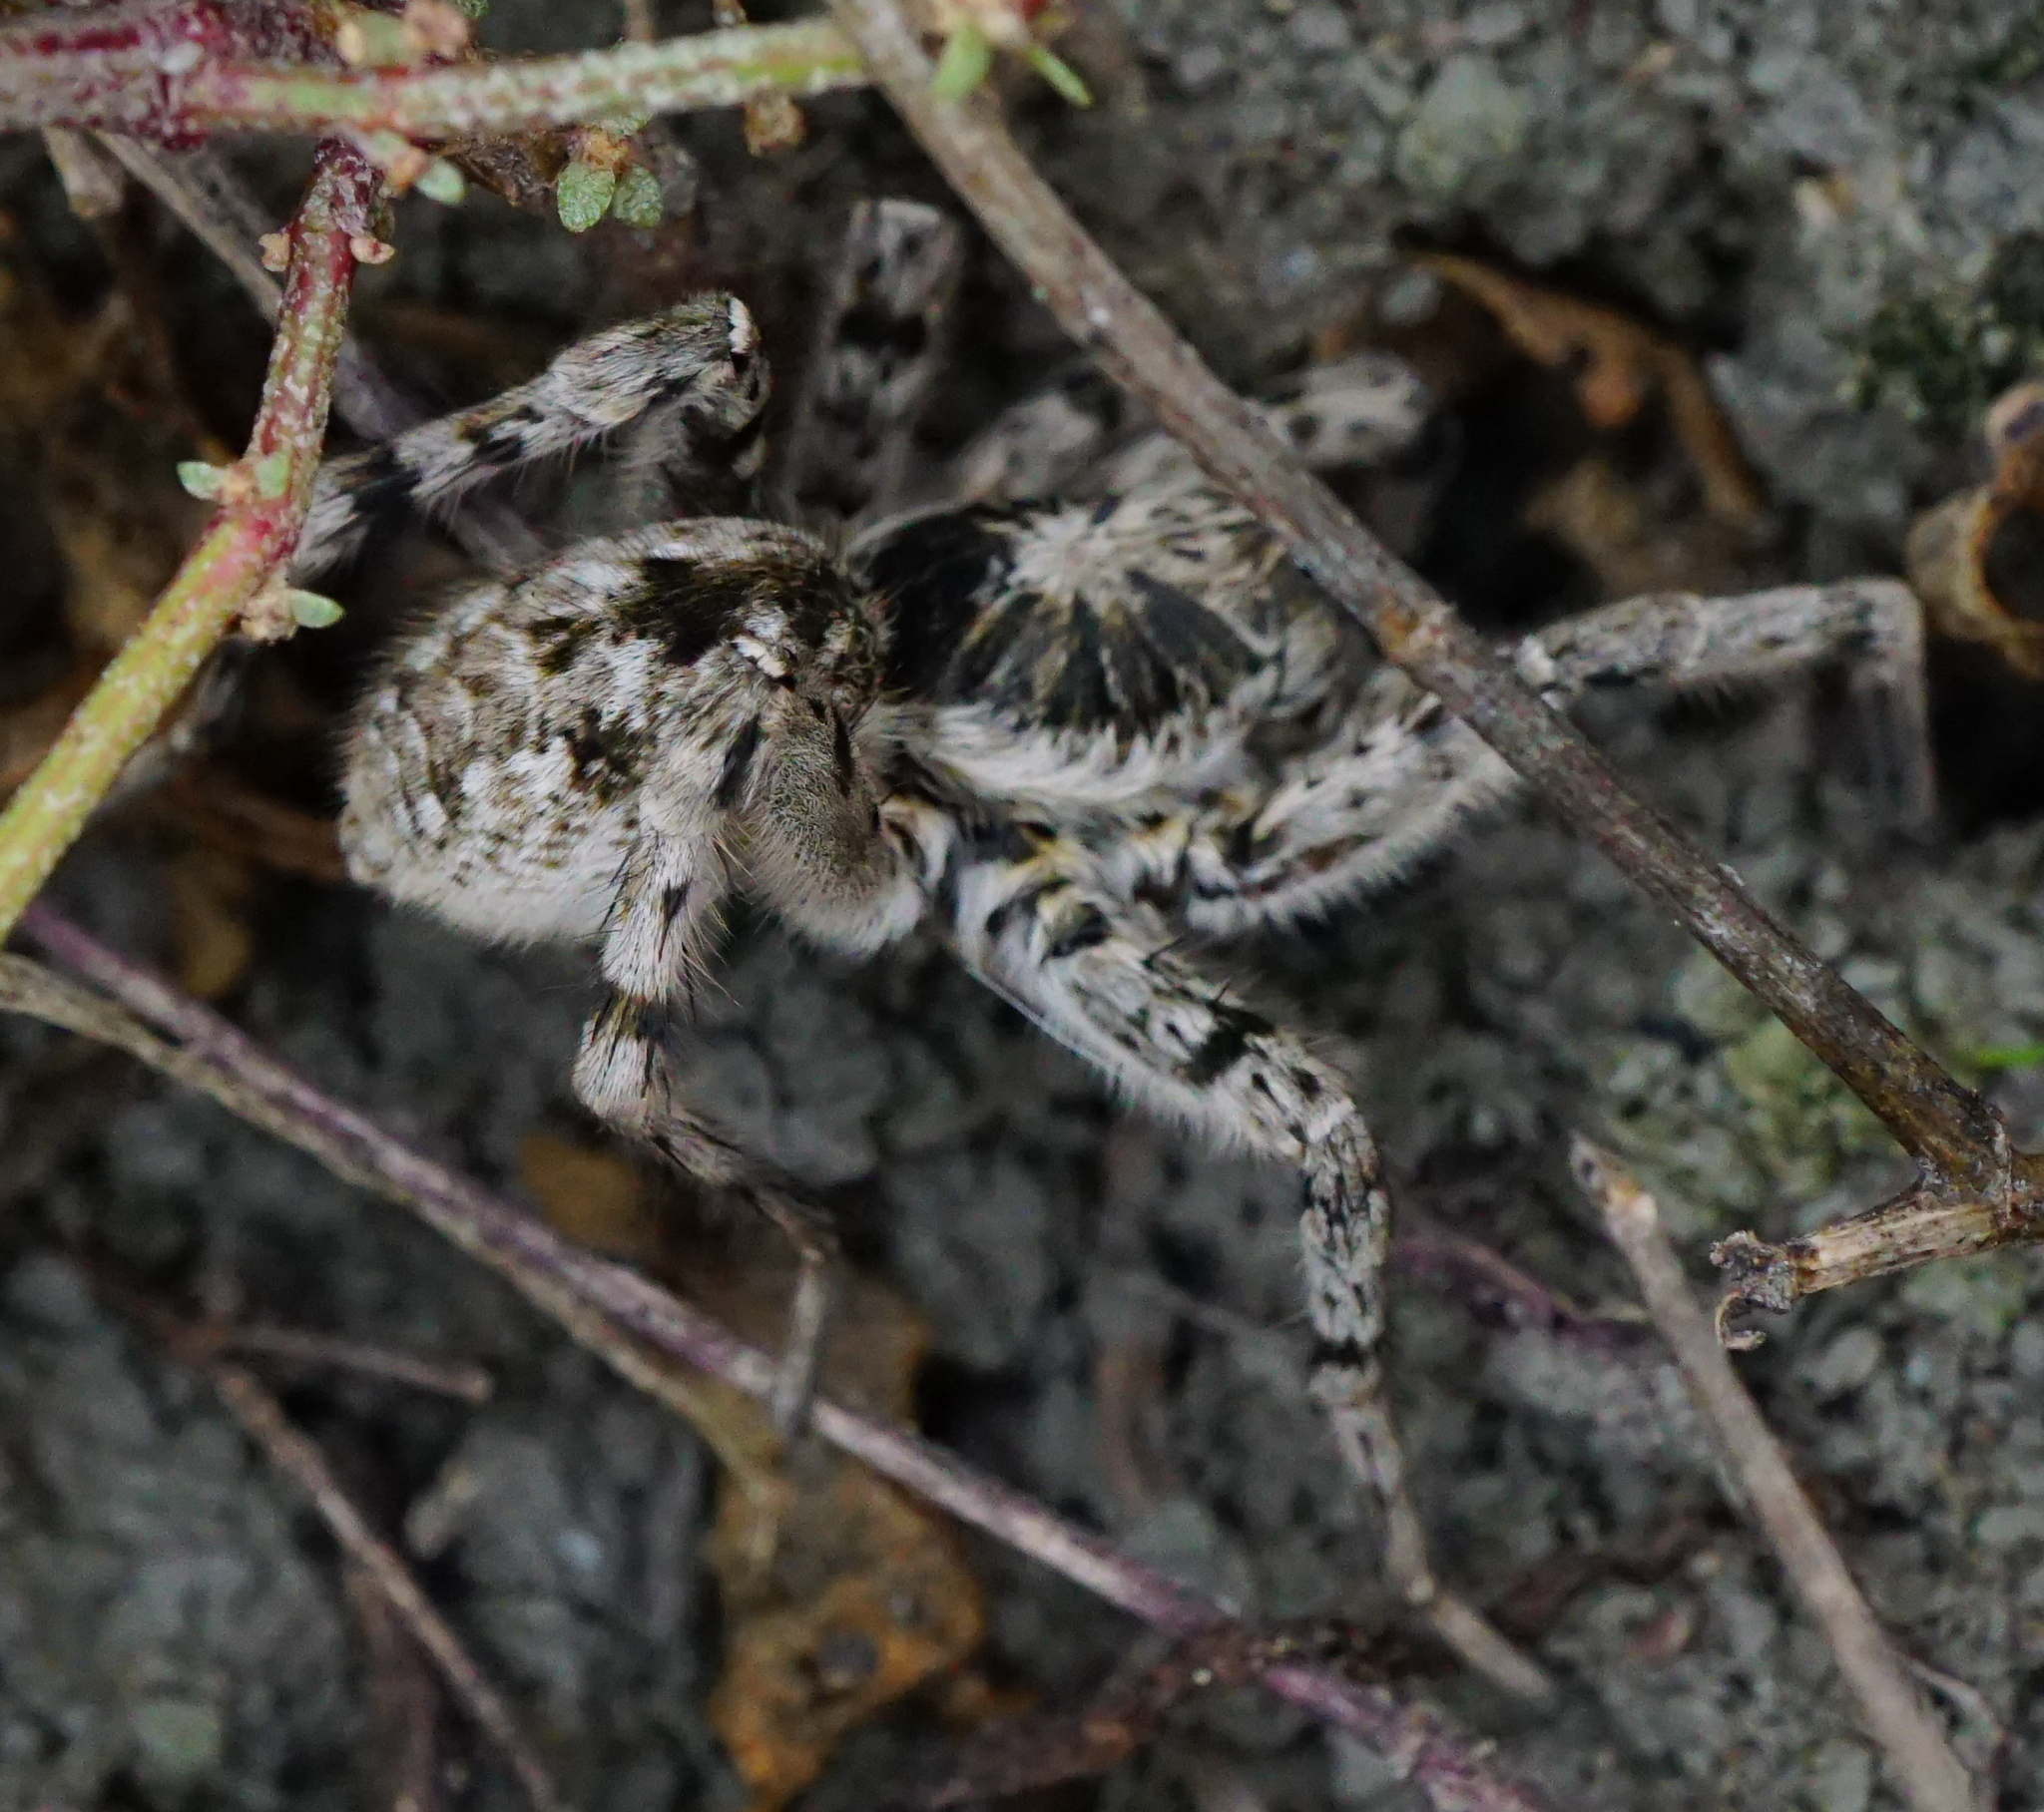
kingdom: Animalia
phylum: Arthropoda
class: Arachnida
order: Araneae
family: Lycosidae
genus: Lycosa
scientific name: Lycosa singoriensis
